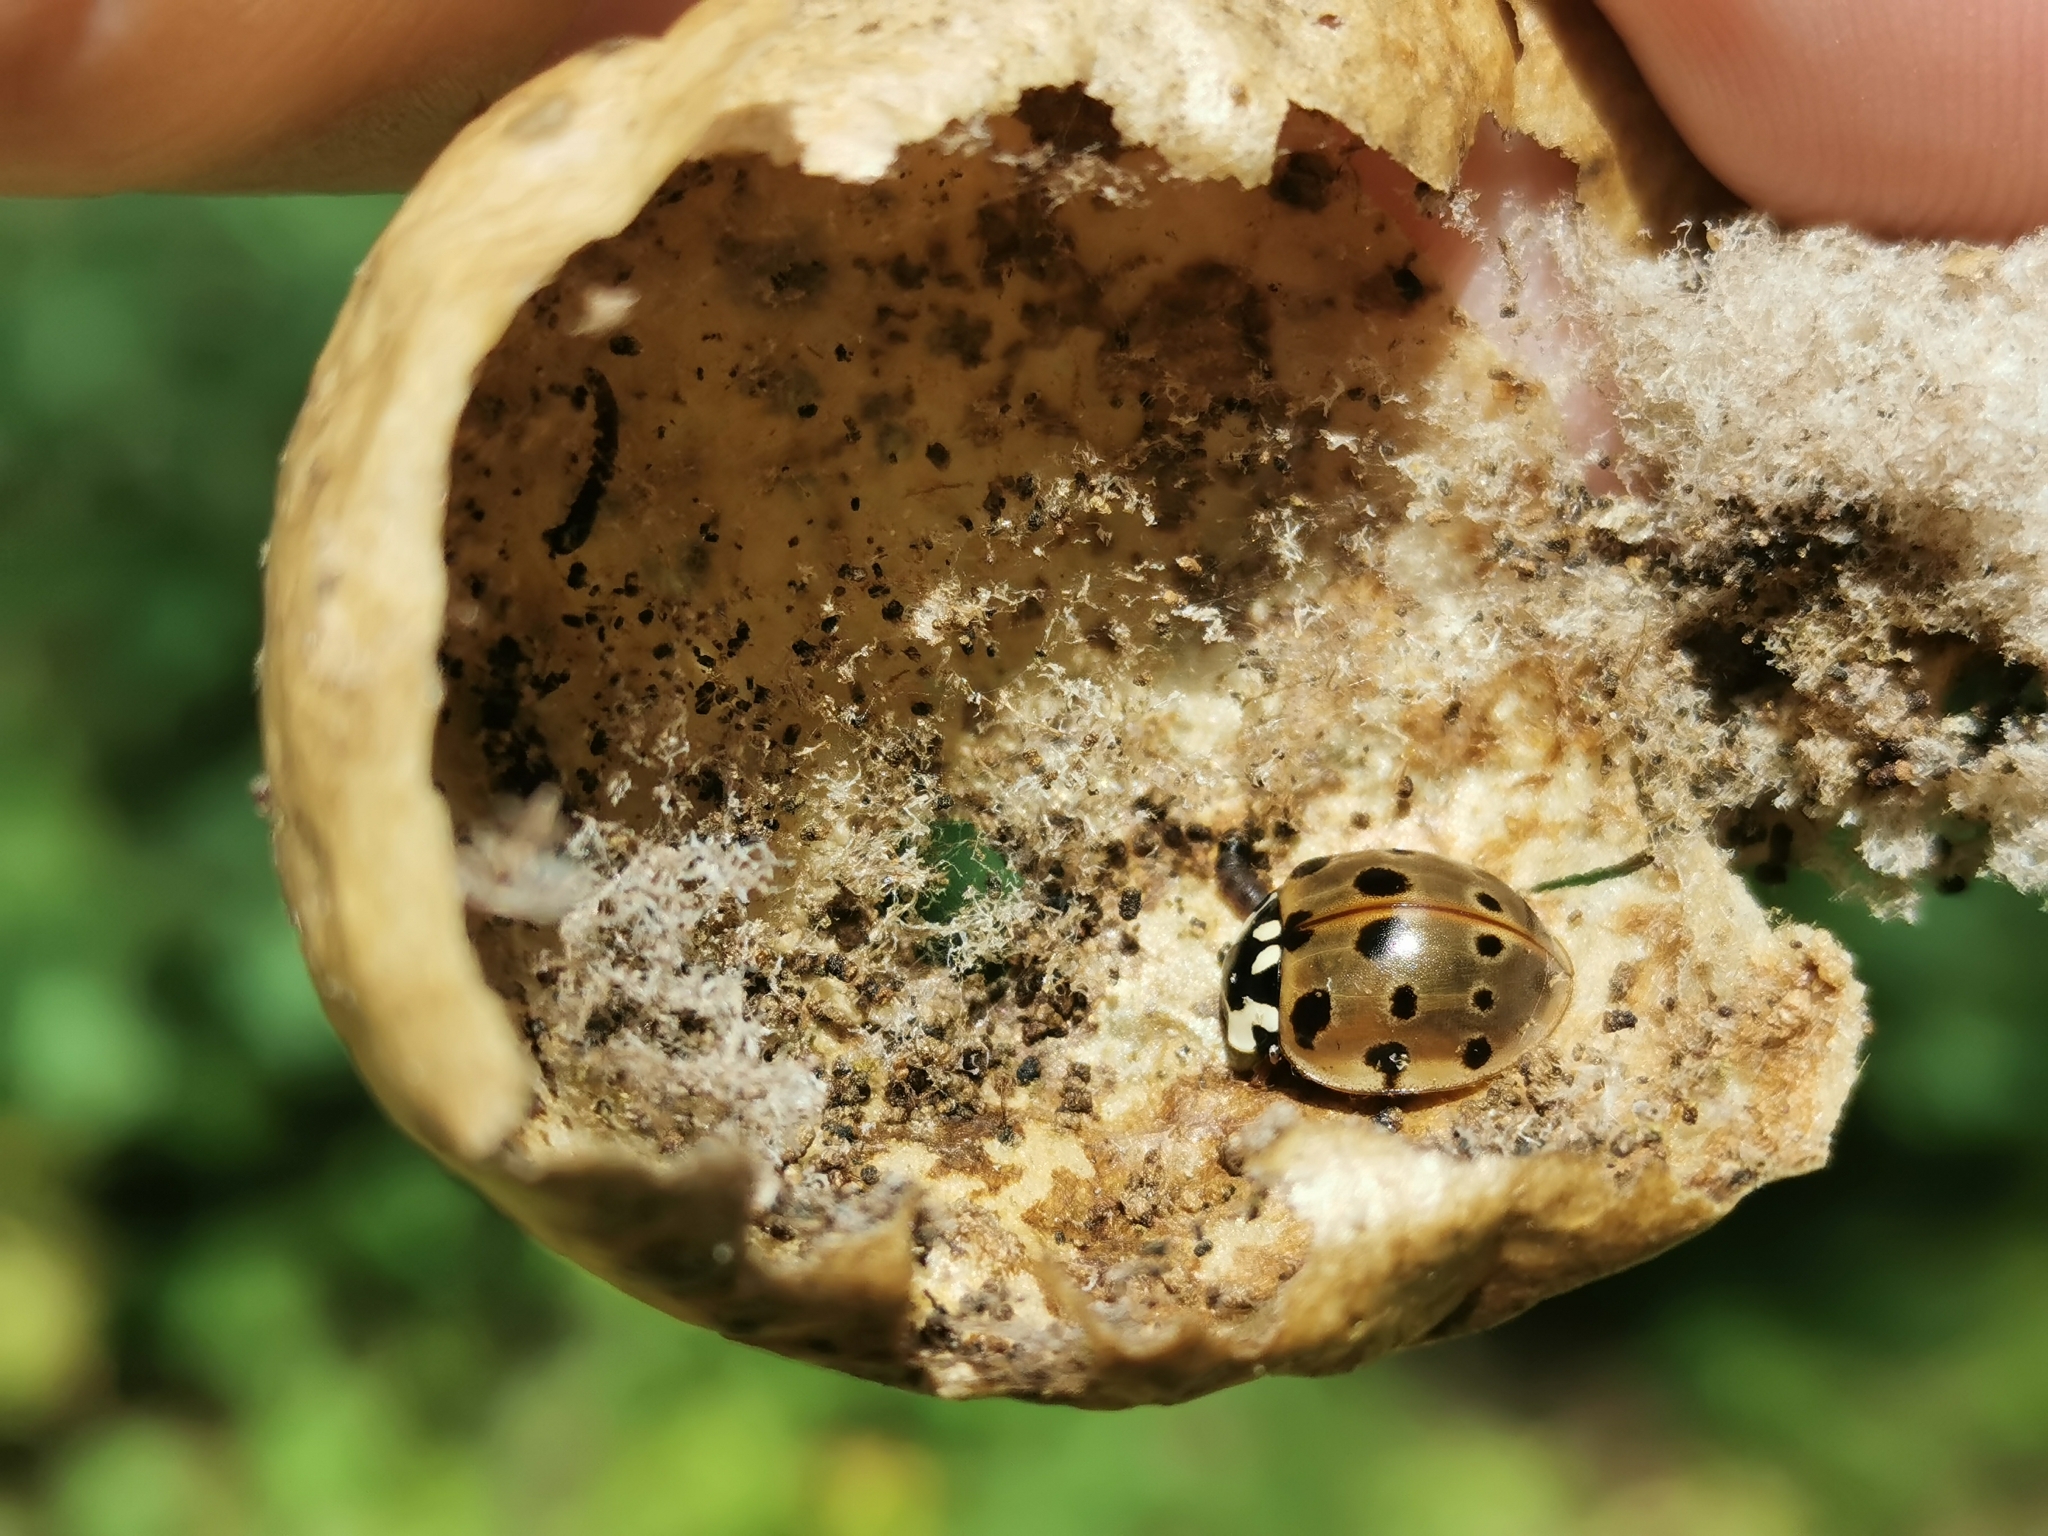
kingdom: Animalia
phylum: Arthropoda
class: Insecta
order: Coleoptera
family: Coccinellidae
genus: Anatis
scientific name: Anatis mali
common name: Eye-spotted lady beetle
